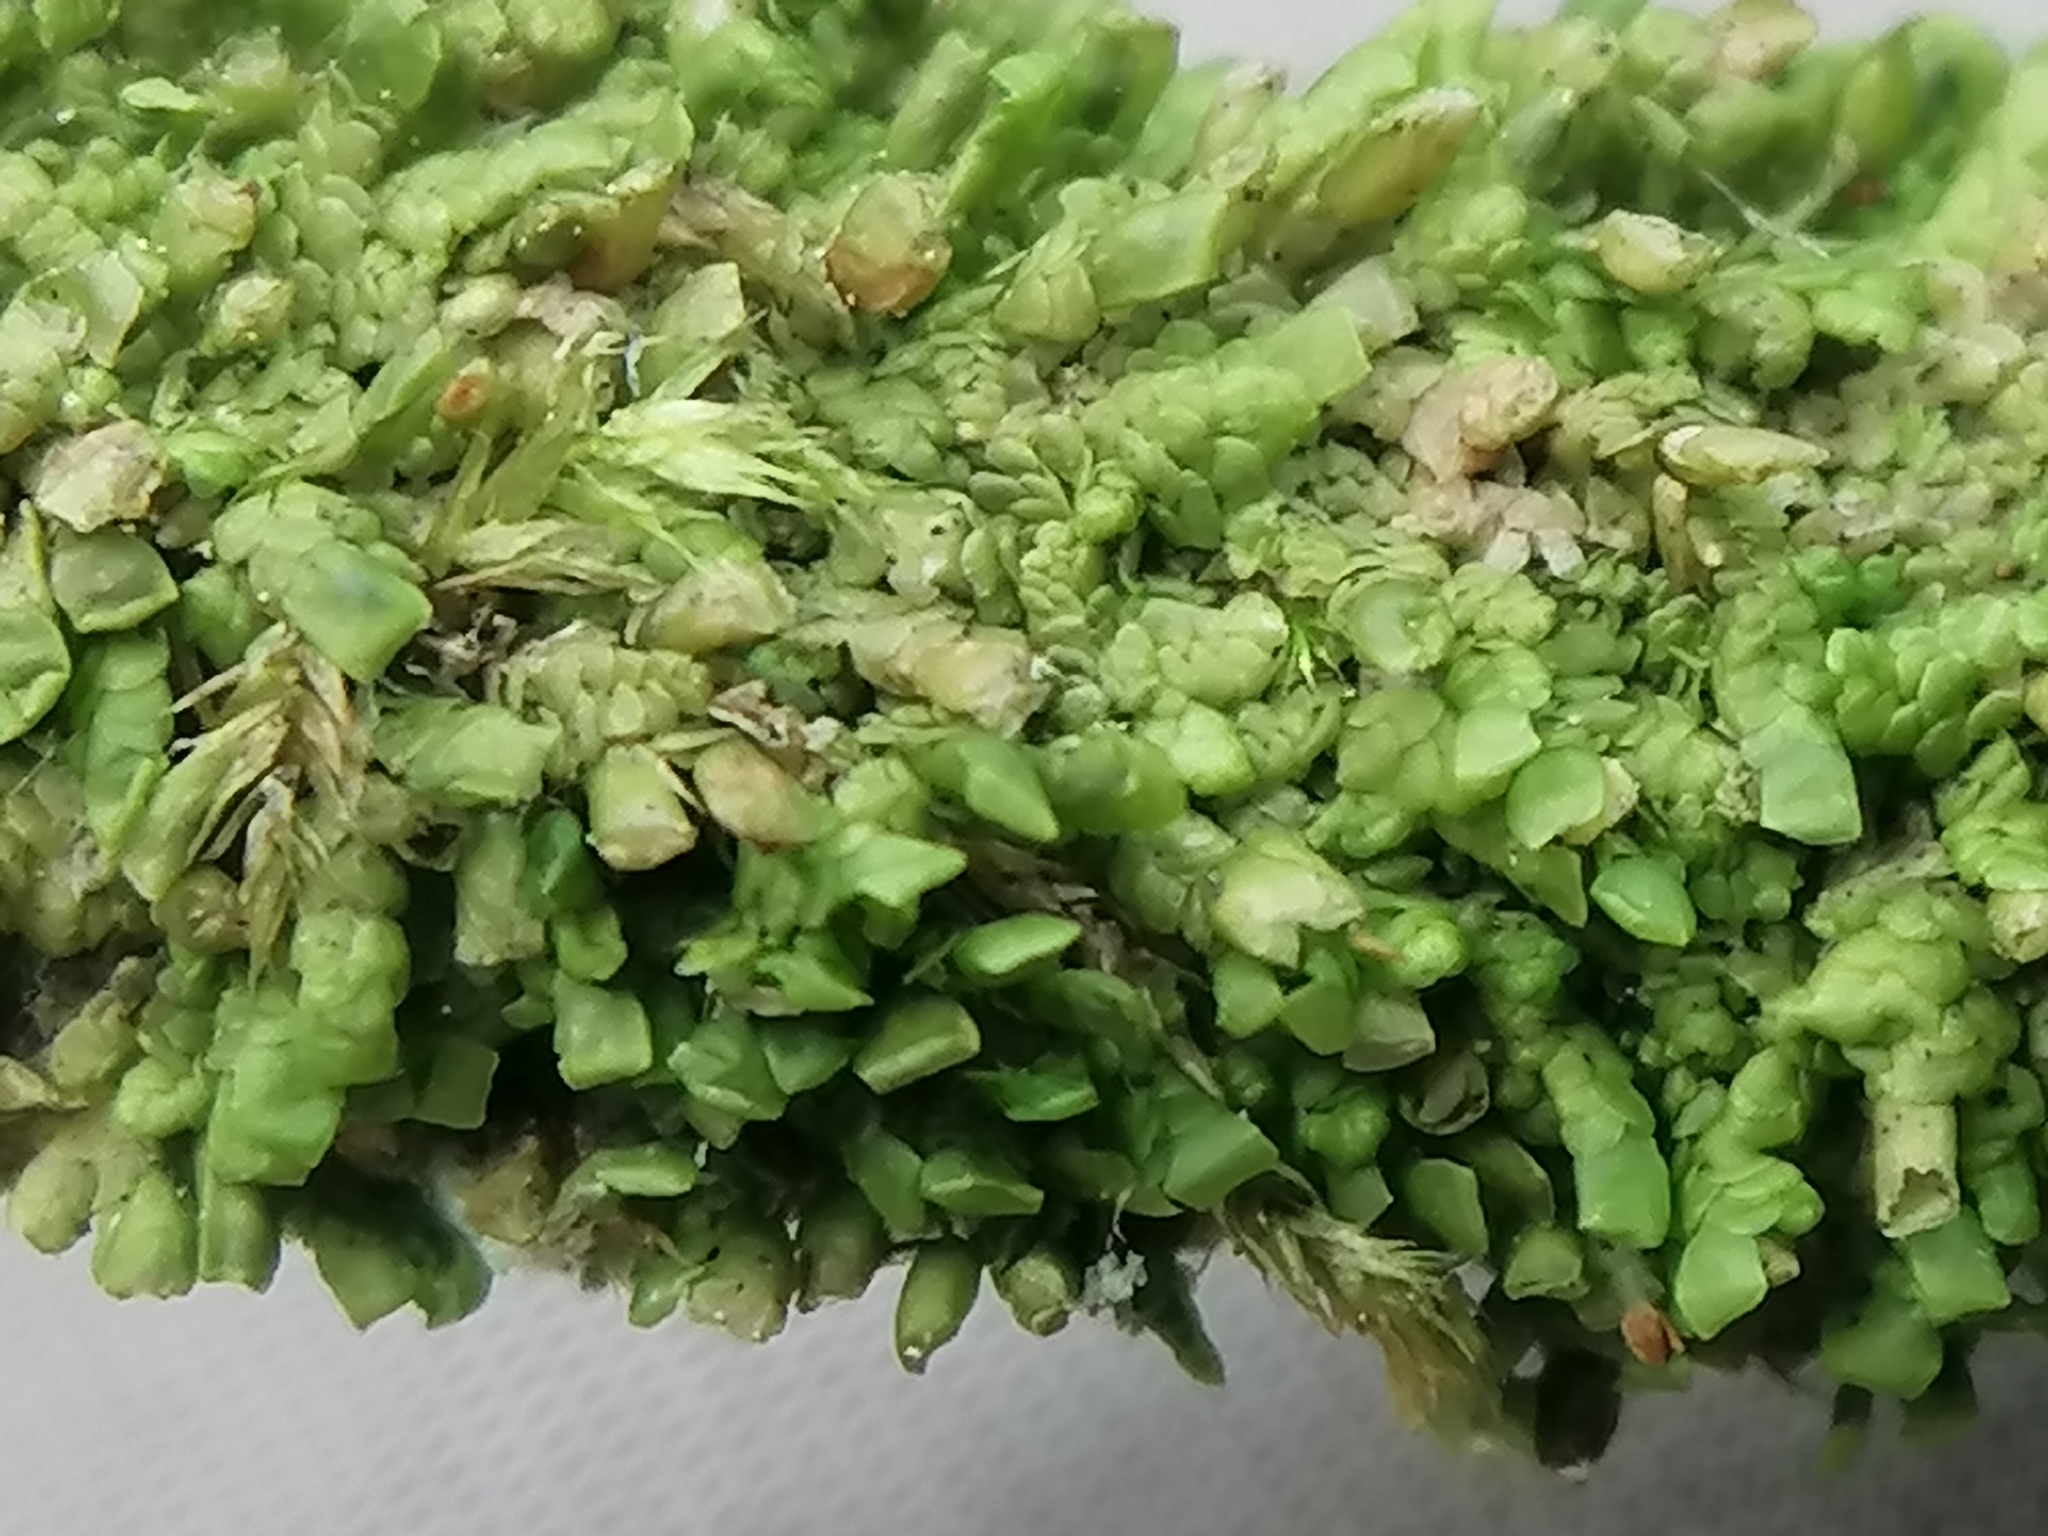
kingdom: Plantae
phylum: Marchantiophyta
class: Jungermanniopsida
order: Porellales
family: Radulaceae
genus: Radula
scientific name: Radula complanata
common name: Flat-leaved scalewort
